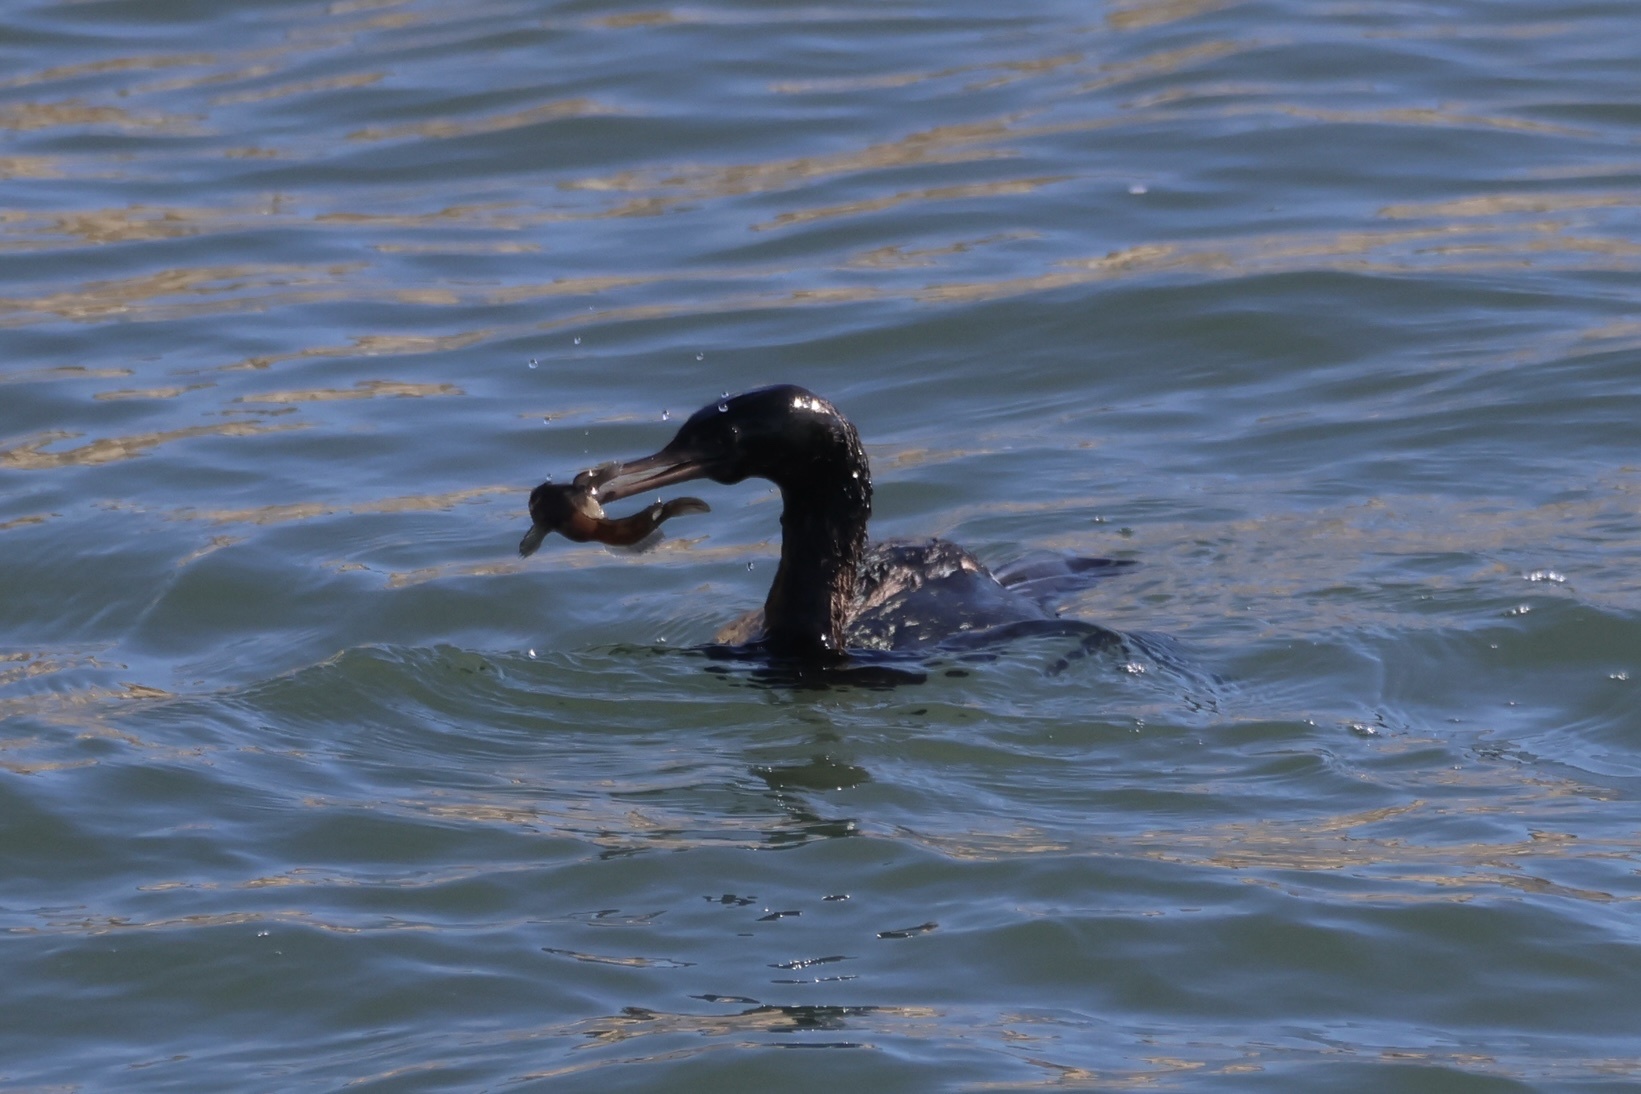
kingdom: Animalia
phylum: Chordata
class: Aves
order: Suliformes
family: Phalacrocoracidae
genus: Phalacrocorax
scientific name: Phalacrocorax pelagicus
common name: Pelagic cormorant
